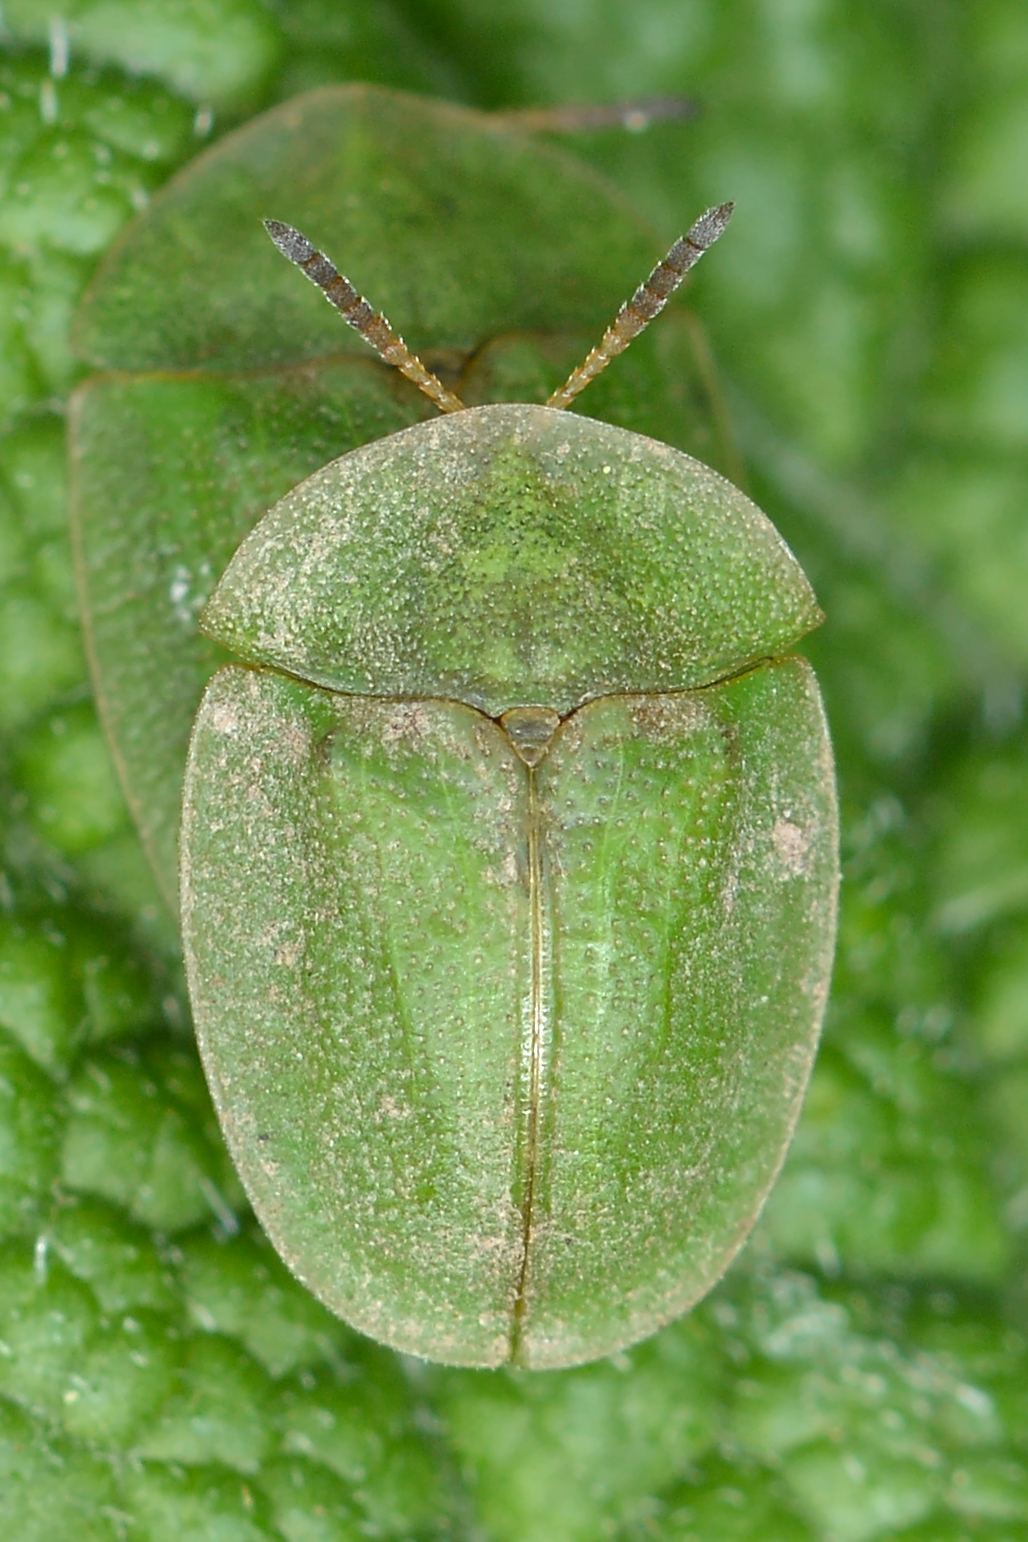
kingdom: Animalia
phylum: Arthropoda
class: Insecta
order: Coleoptera
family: Chrysomelidae
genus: Cassida
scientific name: Cassida rubiginosa
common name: Thistle tortoise beetle
